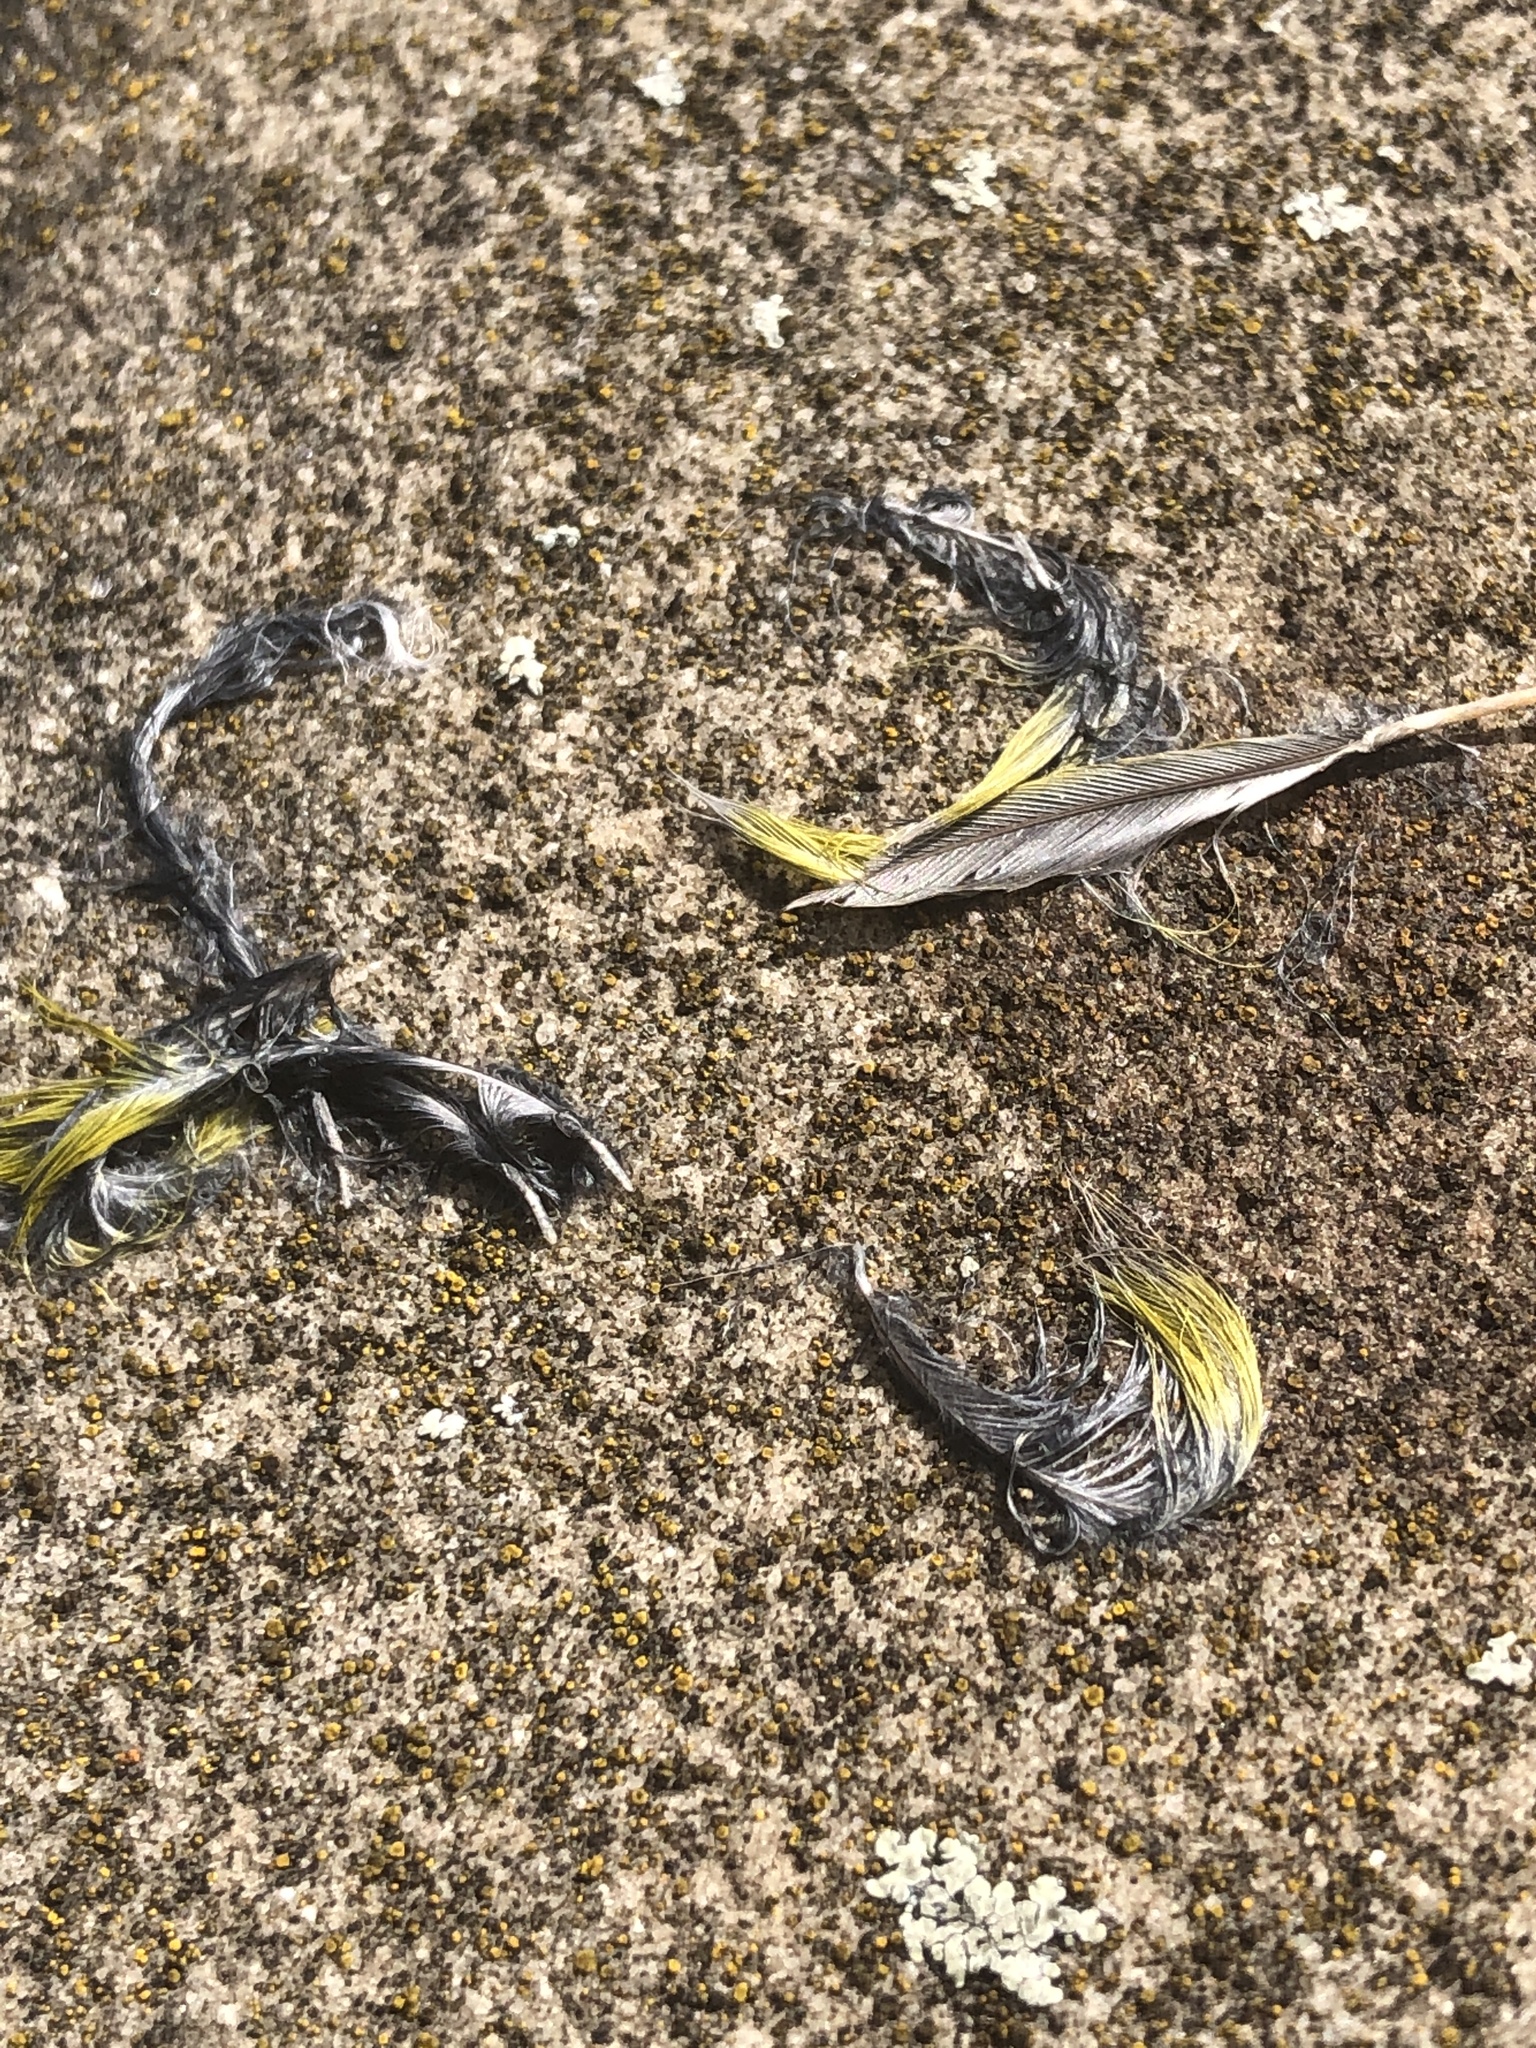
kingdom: Plantae
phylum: Tracheophyta
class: Liliopsida
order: Poales
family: Poaceae
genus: Chloris
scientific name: Chloris chloris
